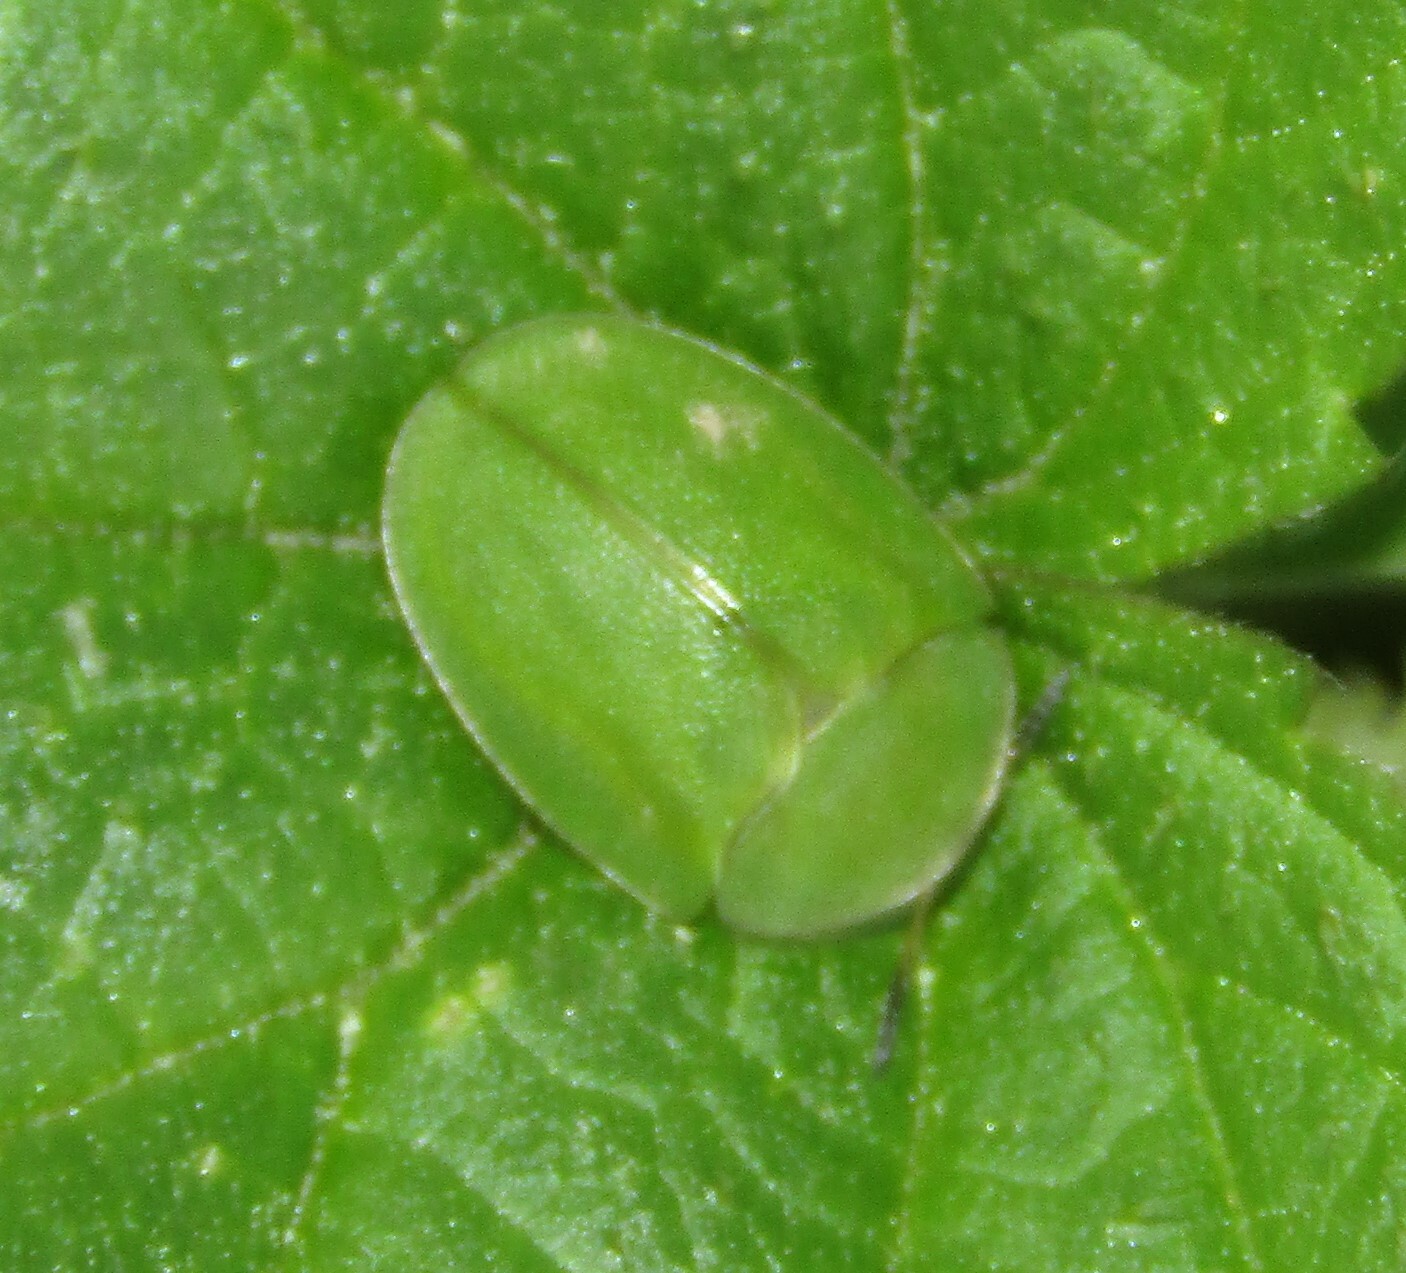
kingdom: Animalia
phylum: Arthropoda
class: Insecta
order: Coleoptera
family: Chrysomelidae
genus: Cassida
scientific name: Cassida viridis
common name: Green tortoise beetle
